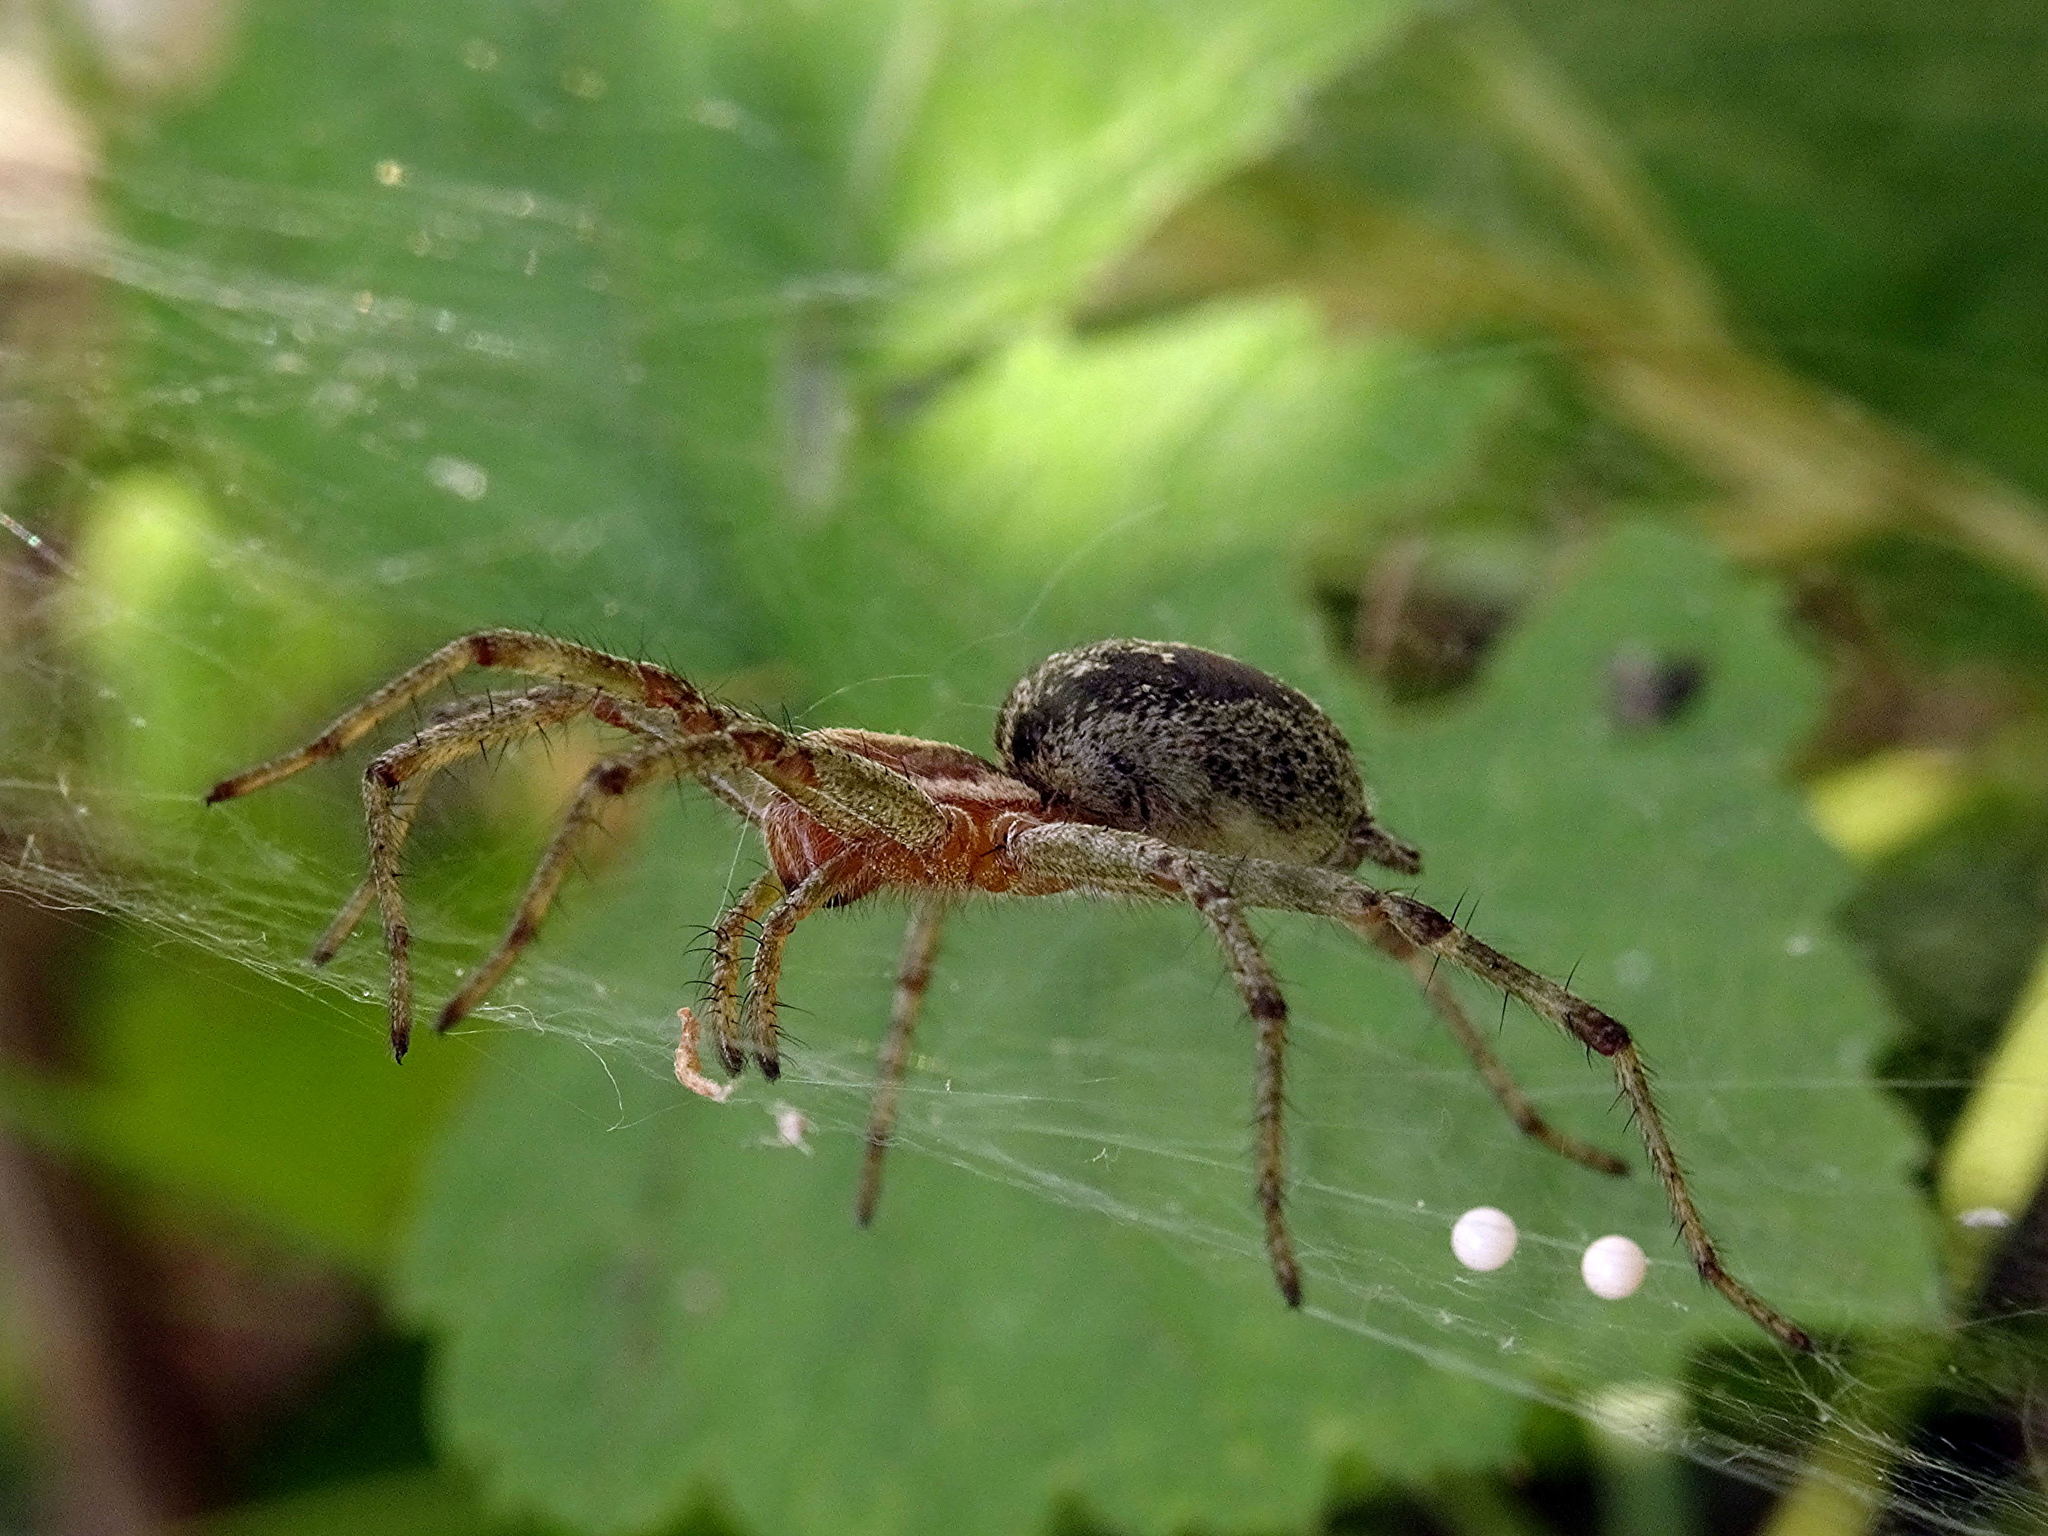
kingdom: Animalia
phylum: Arthropoda
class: Arachnida
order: Araneae
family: Agelenidae
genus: Agelena
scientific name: Agelena labyrinthica
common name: Labyrinth spider
